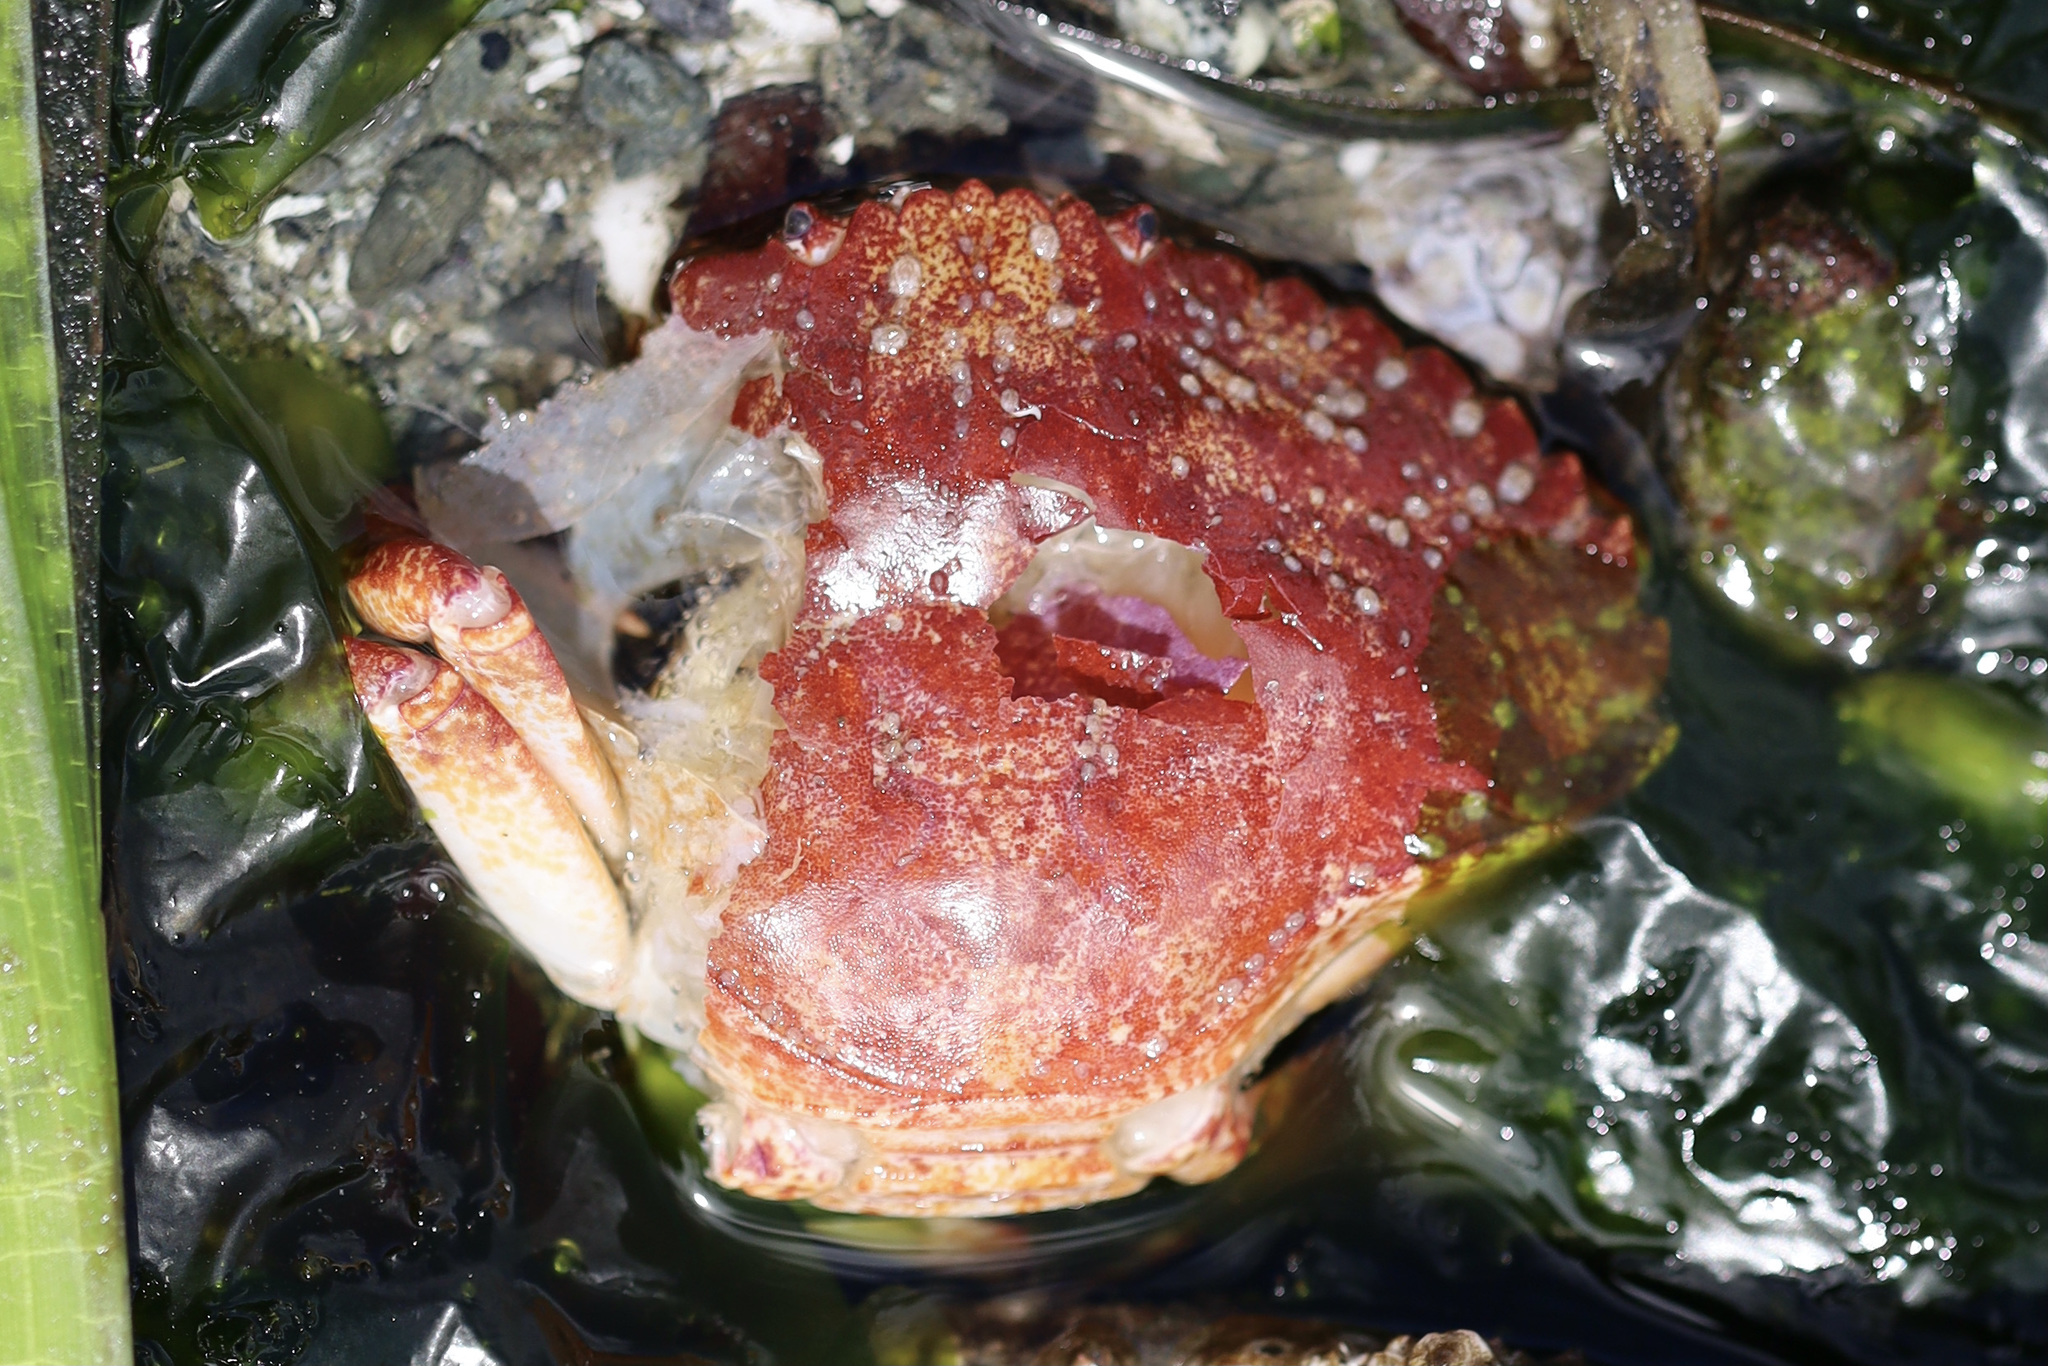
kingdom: Animalia
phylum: Arthropoda
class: Malacostraca
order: Decapoda
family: Cancridae
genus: Cancer
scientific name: Cancer productus
